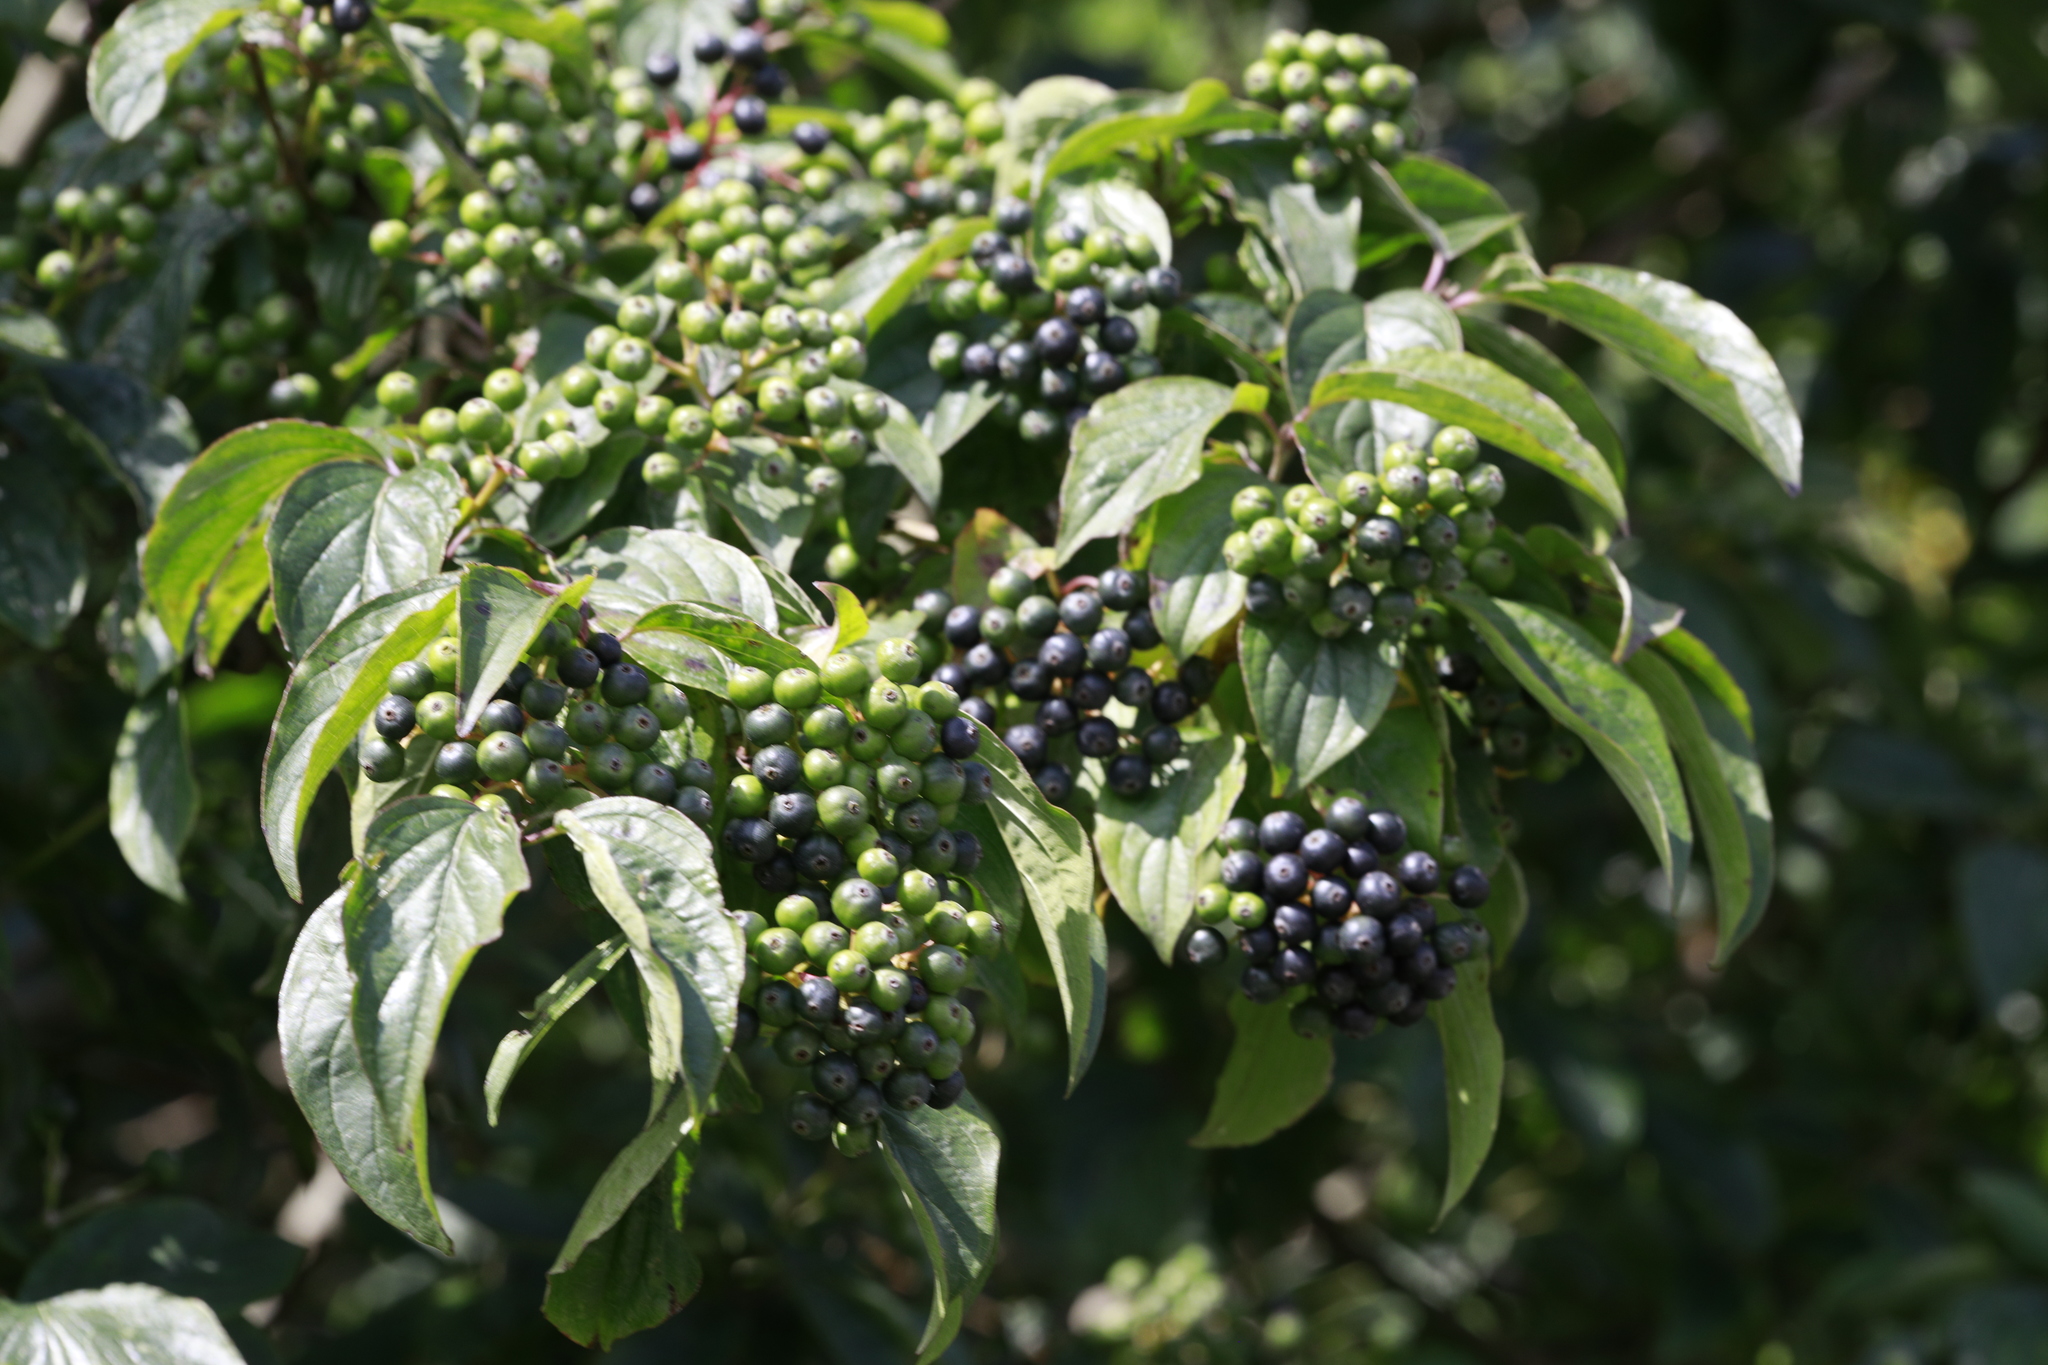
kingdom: Plantae
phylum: Tracheophyta
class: Magnoliopsida
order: Cornales
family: Cornaceae
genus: Cornus
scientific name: Cornus sanguinea
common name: Dogwood
